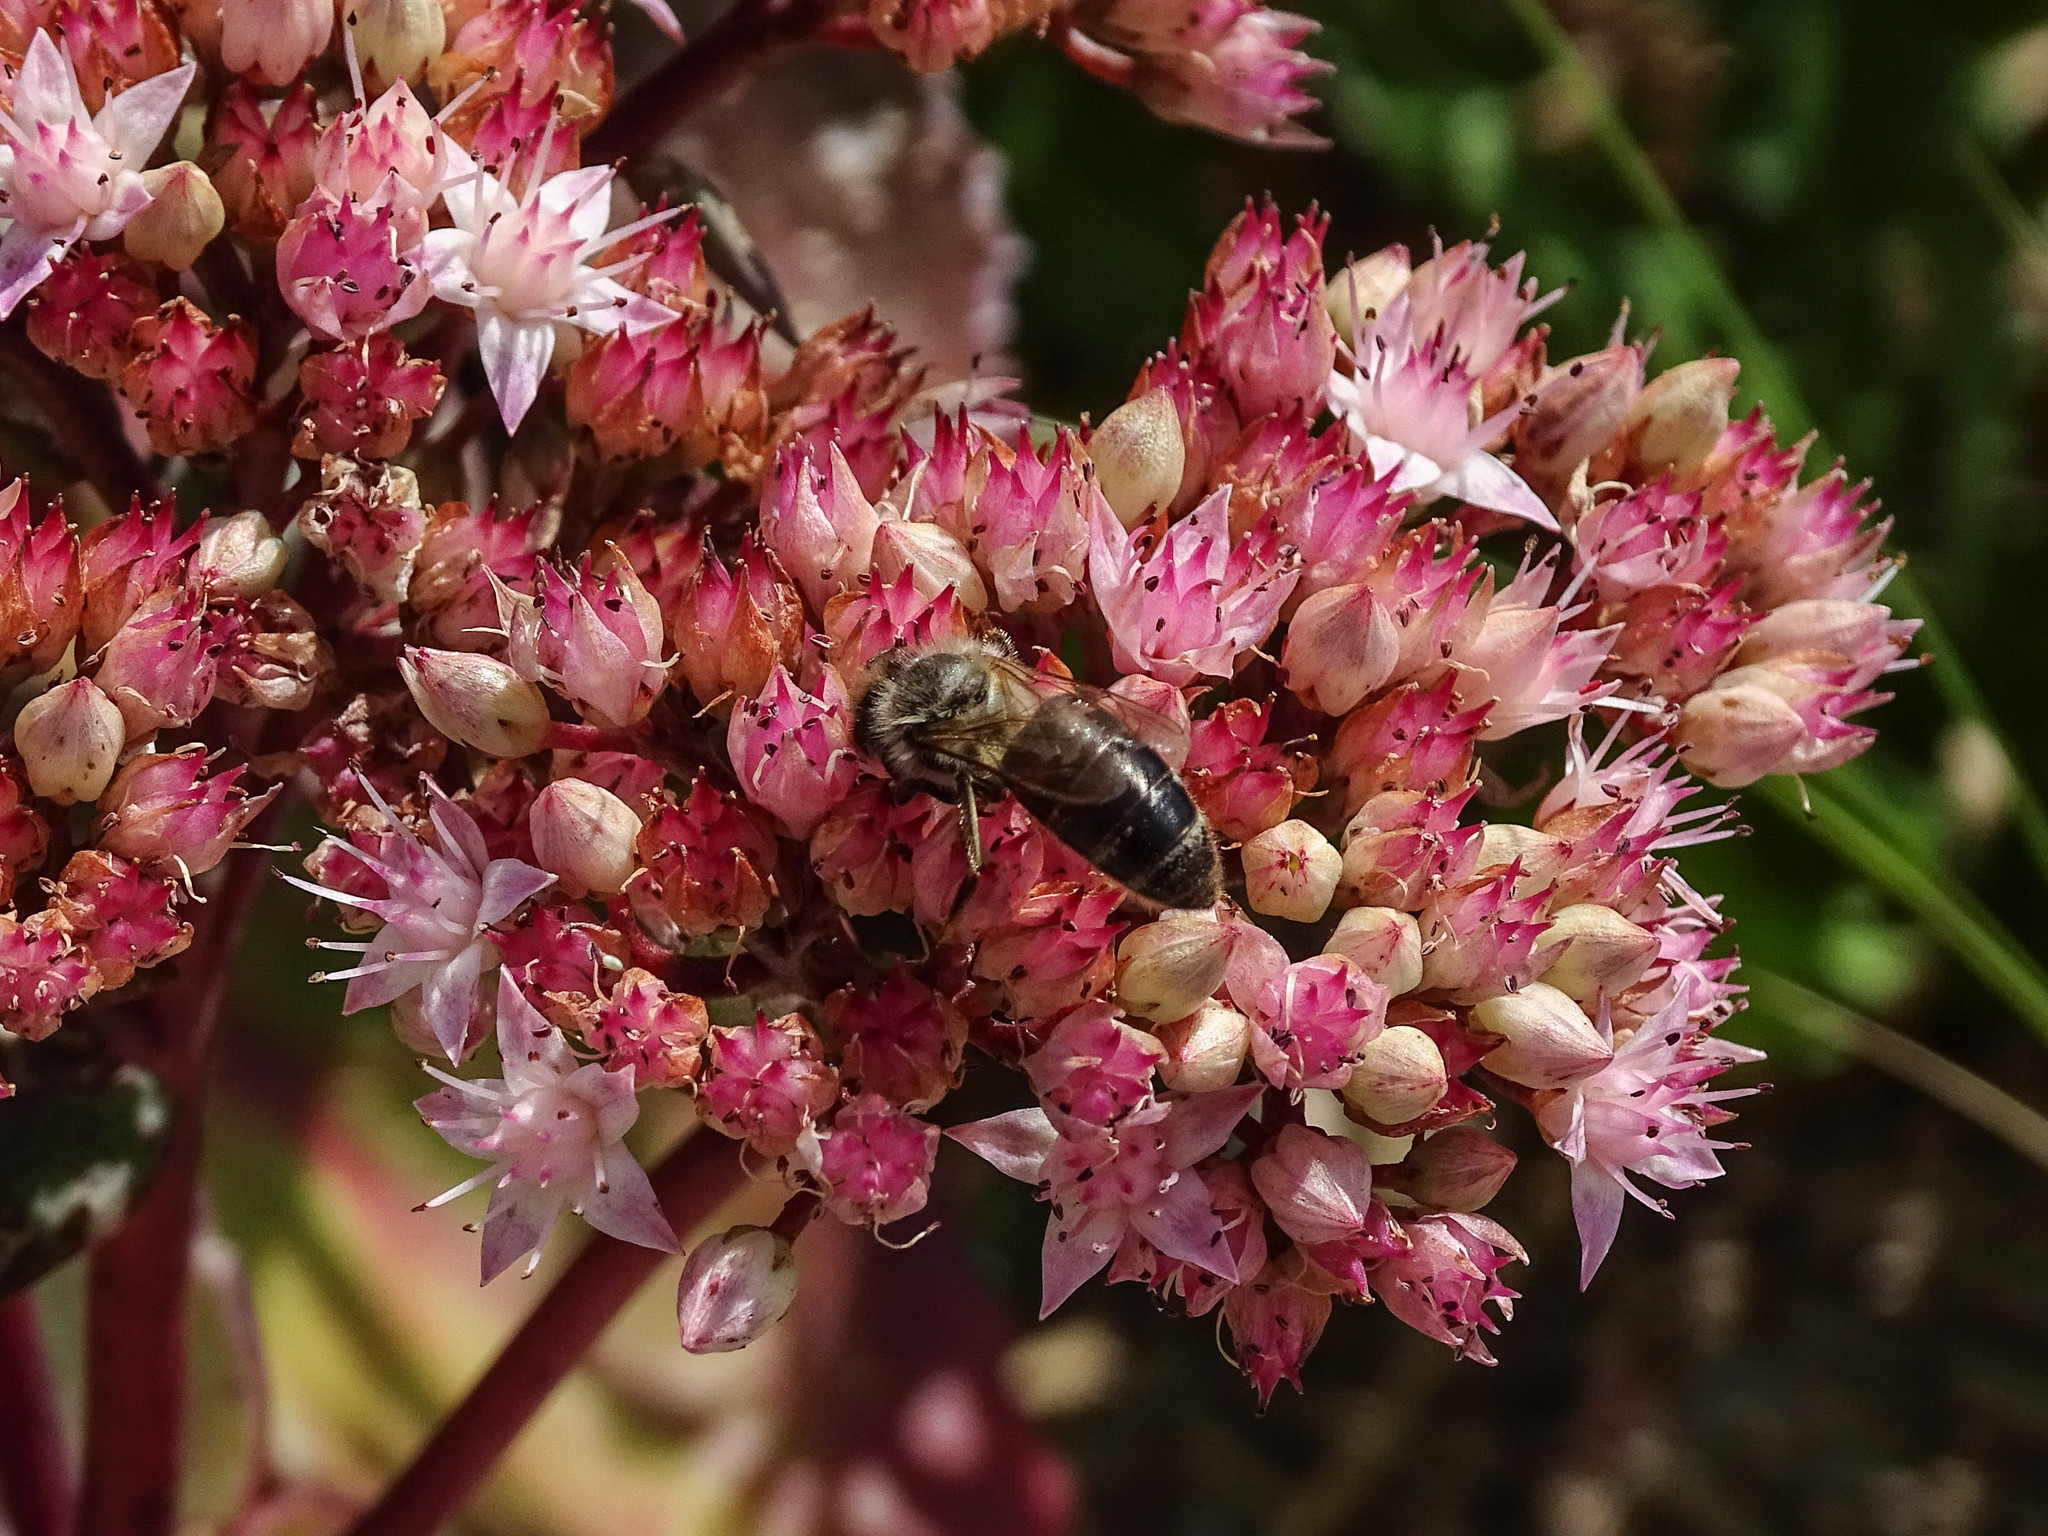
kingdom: Animalia
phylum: Arthropoda
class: Insecta
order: Hymenoptera
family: Apidae
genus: Apis
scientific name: Apis mellifera
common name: Honey bee
